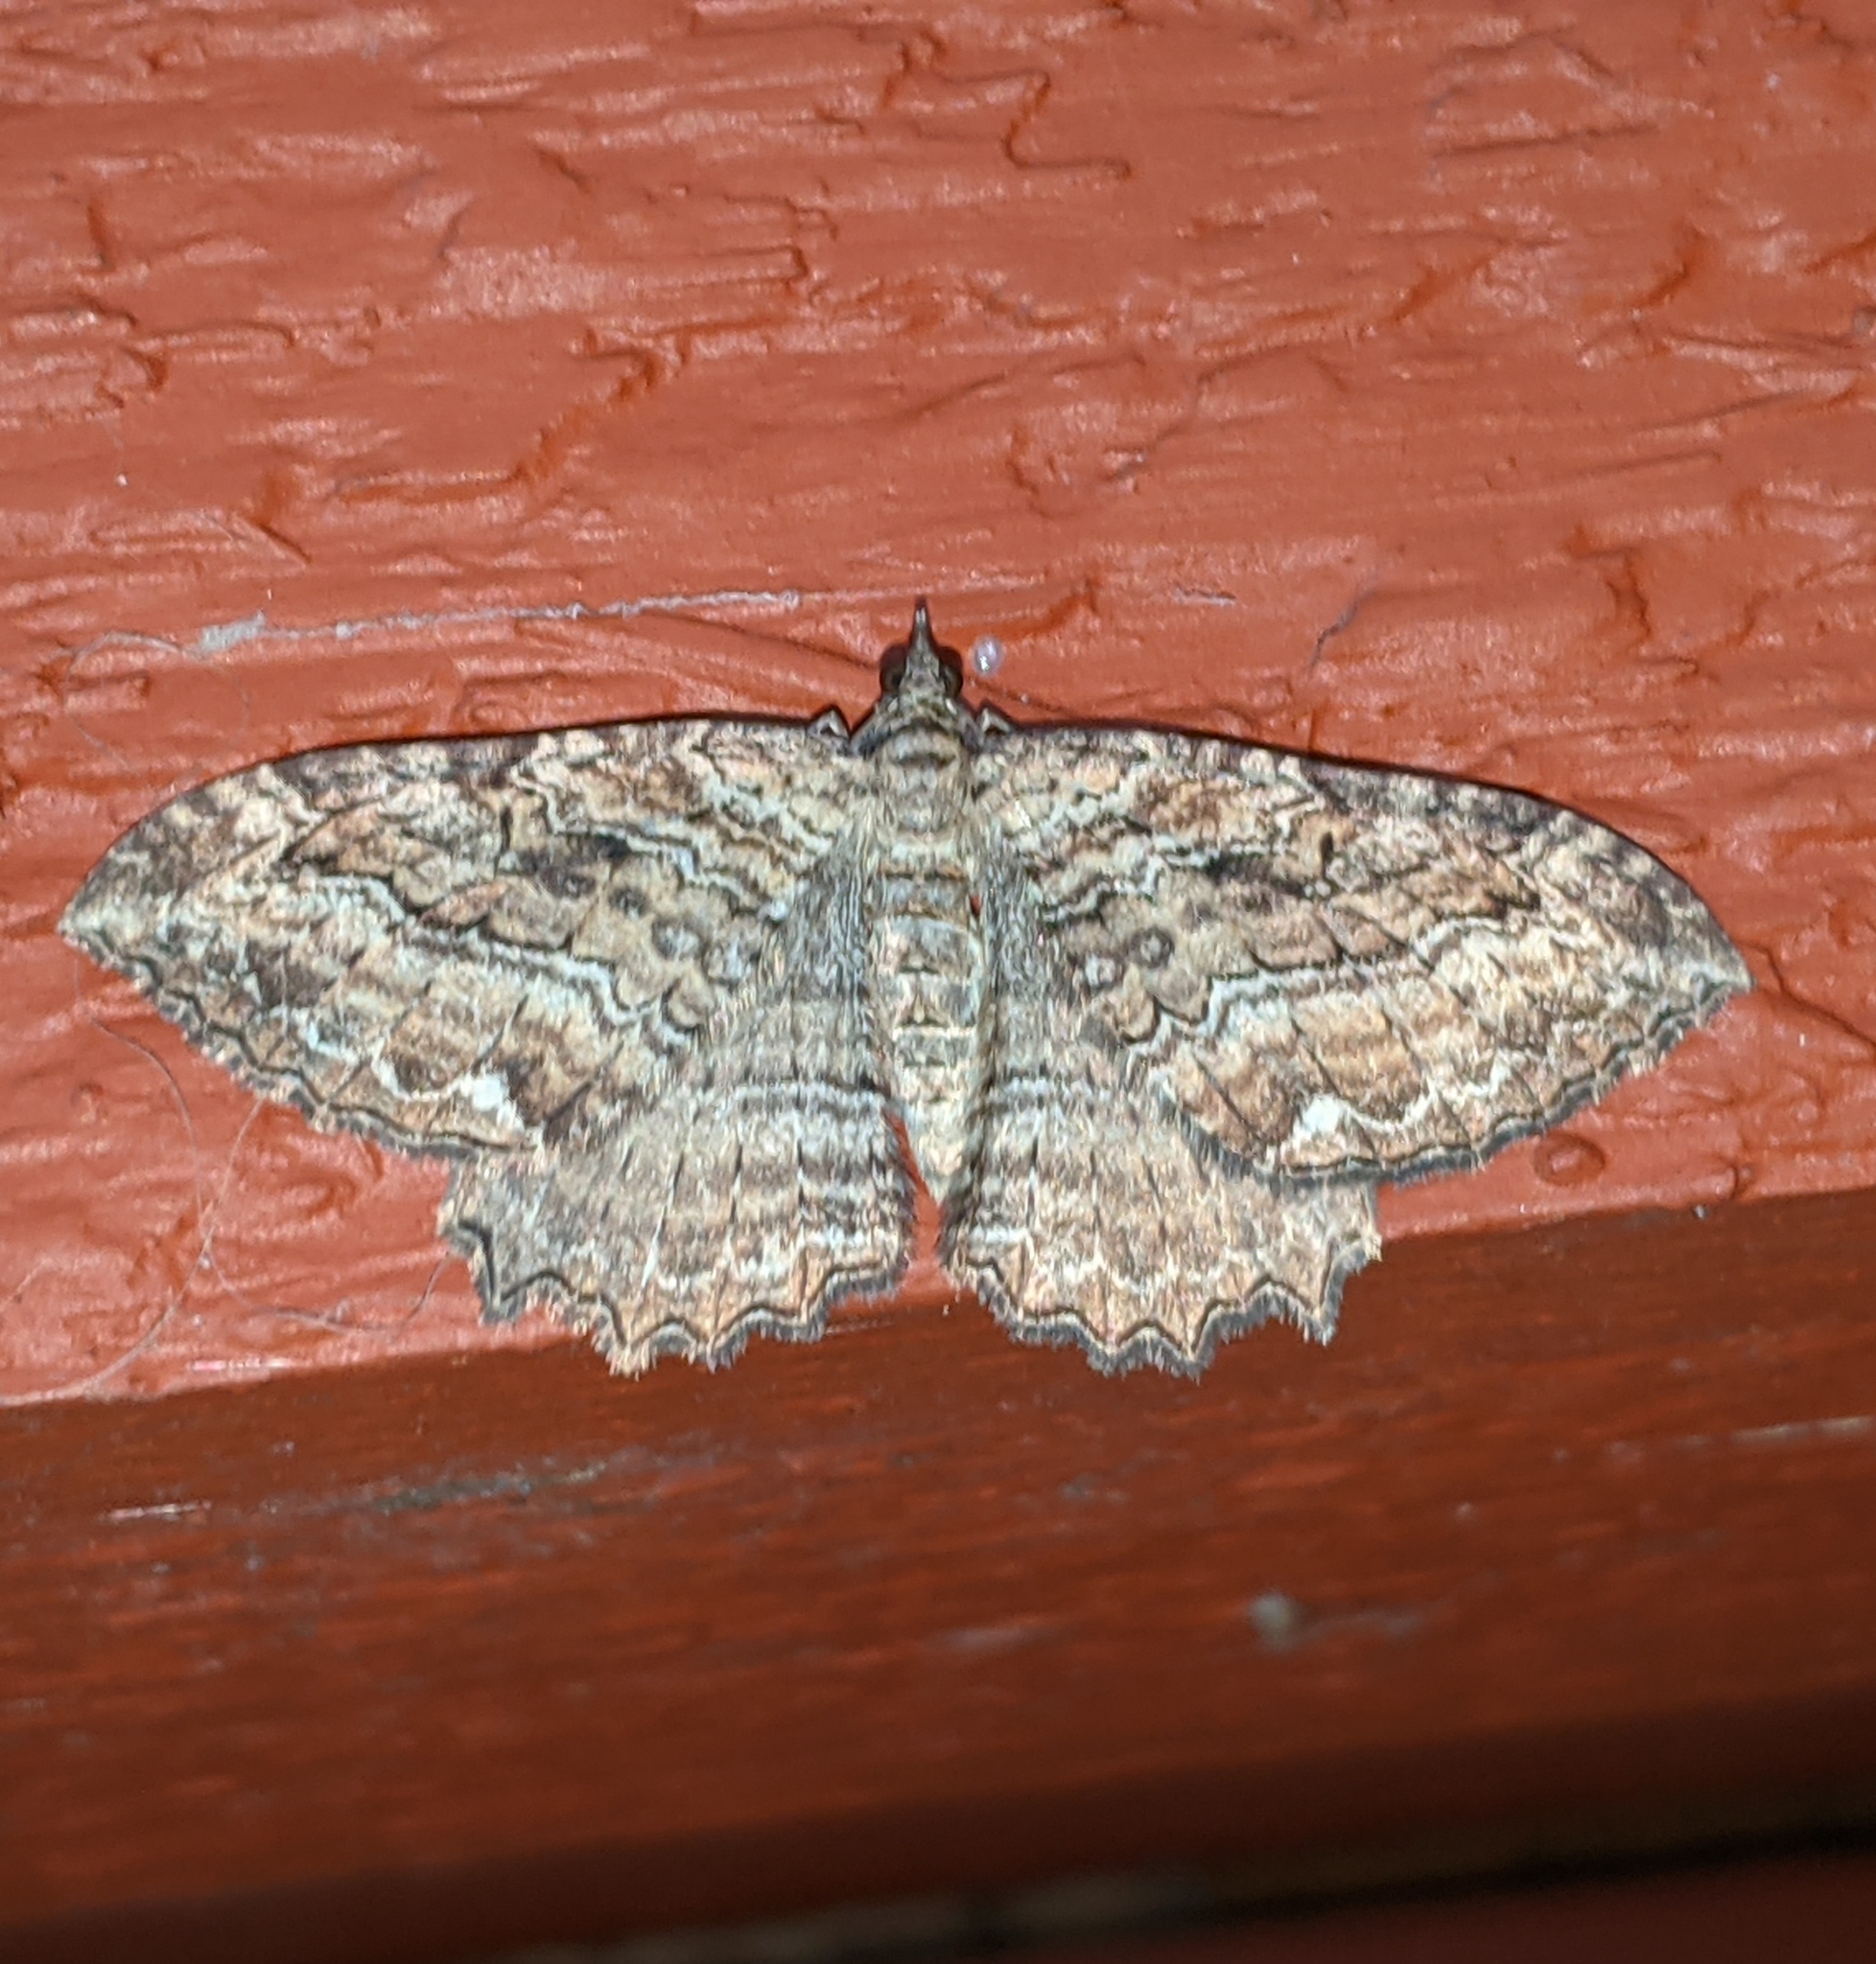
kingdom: Animalia
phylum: Arthropoda
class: Insecta
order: Lepidoptera
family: Geometridae
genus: Rheumaptera
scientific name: Rheumaptera
